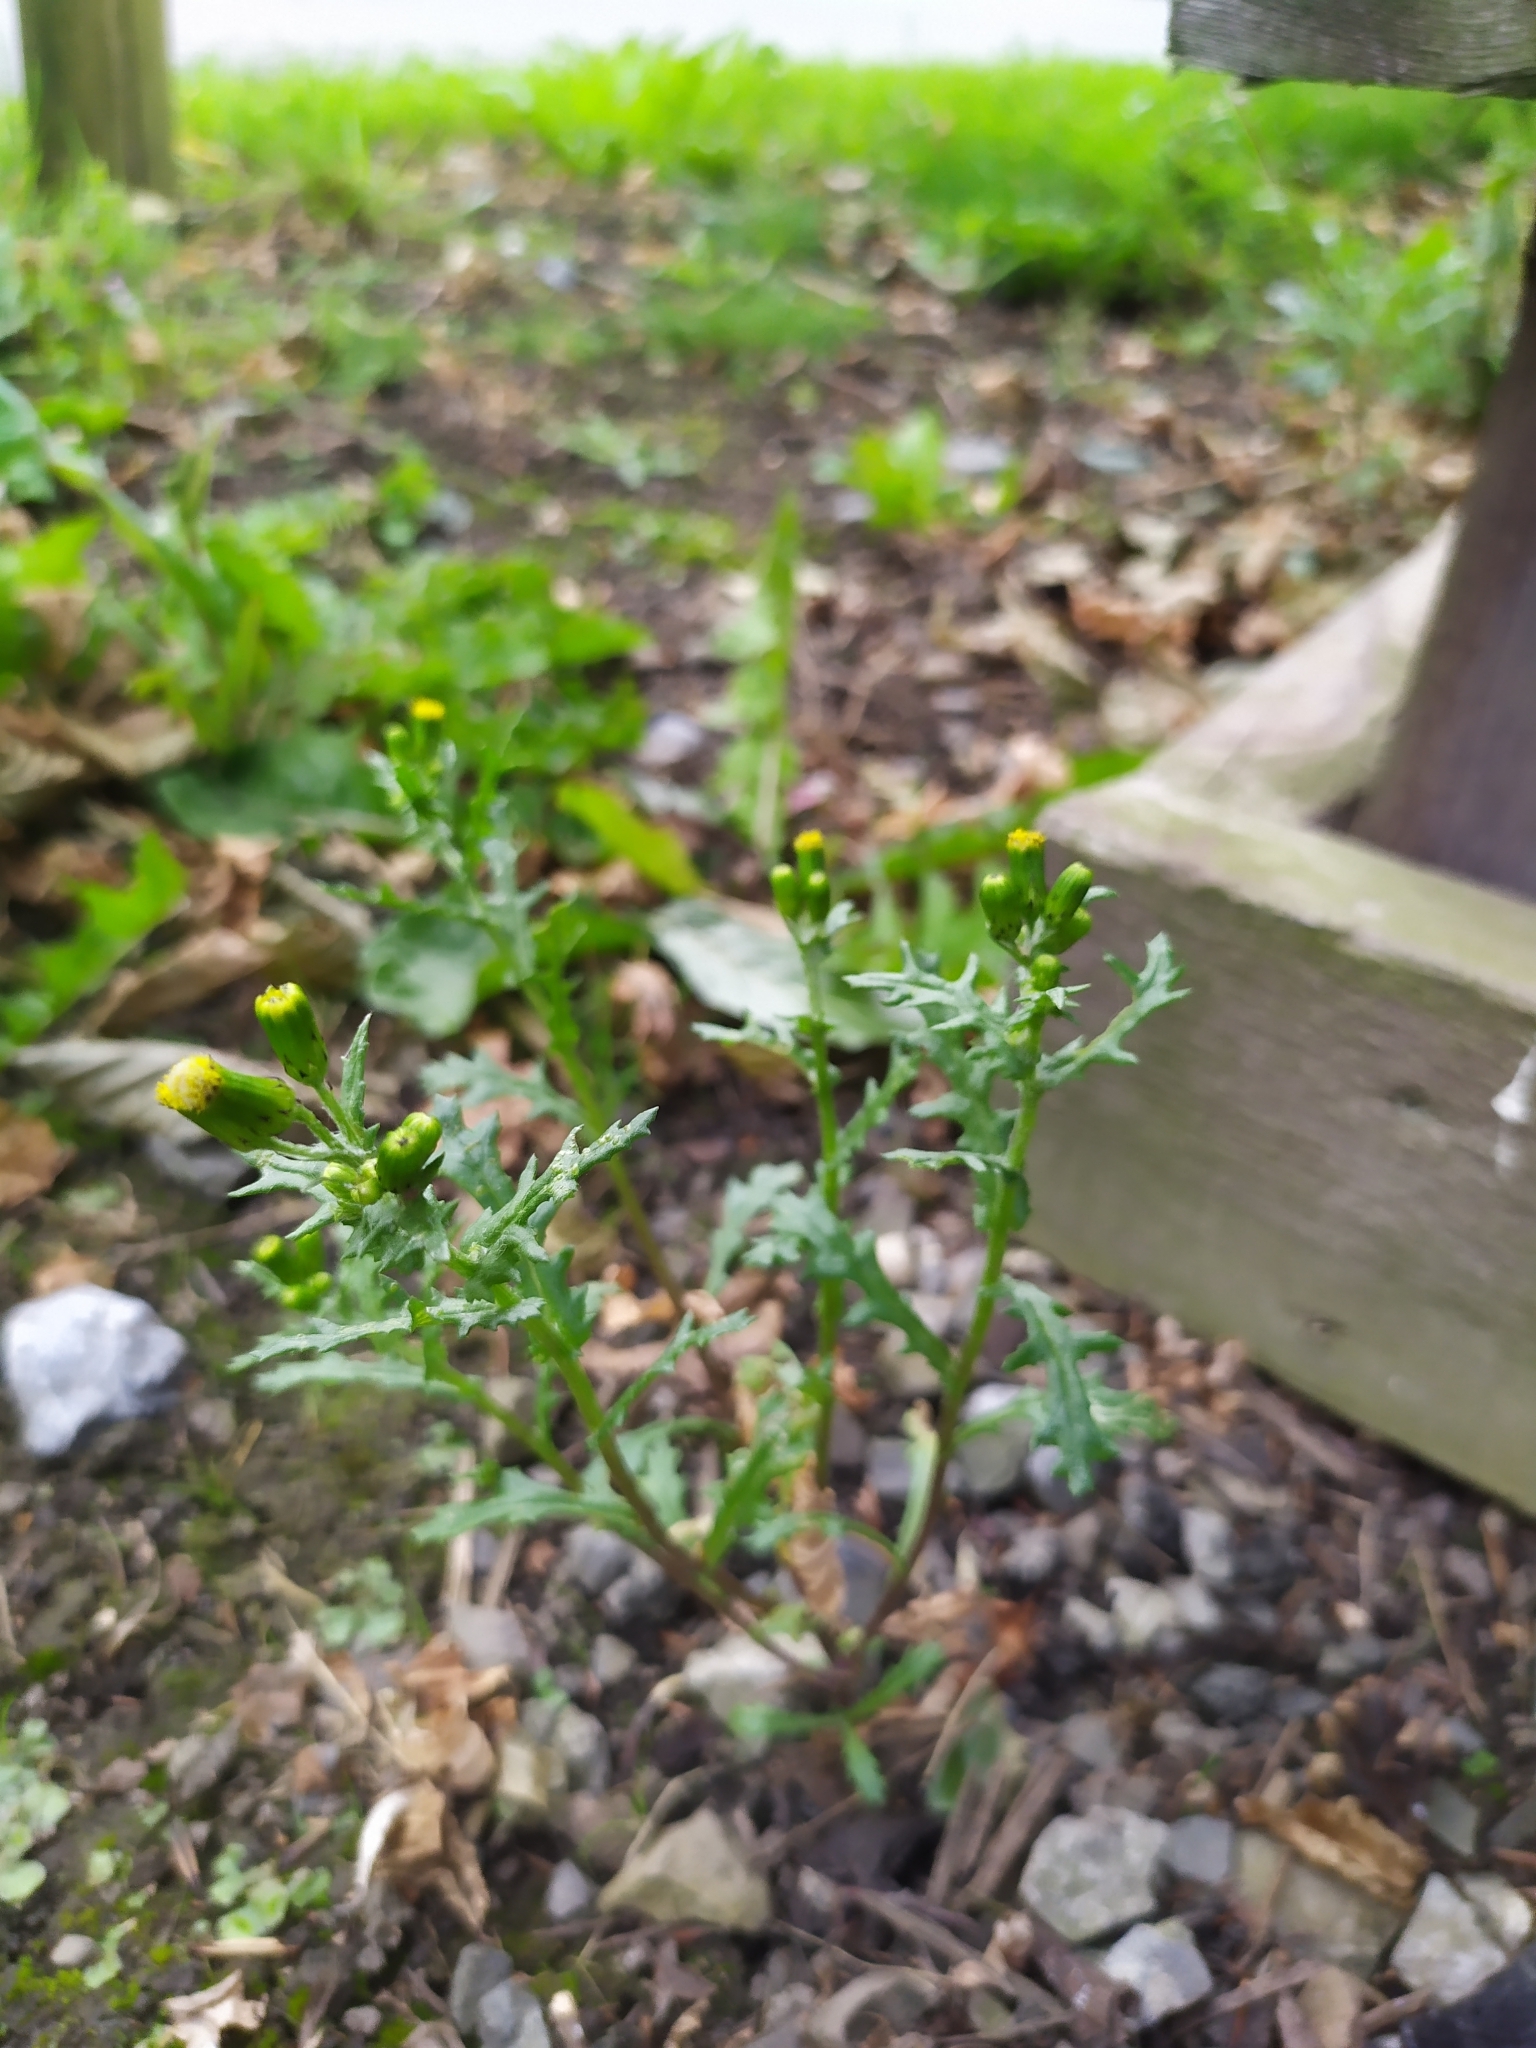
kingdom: Plantae
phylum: Tracheophyta
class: Magnoliopsida
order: Asterales
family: Asteraceae
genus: Senecio
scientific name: Senecio vulgaris
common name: Old-man-in-the-spring
